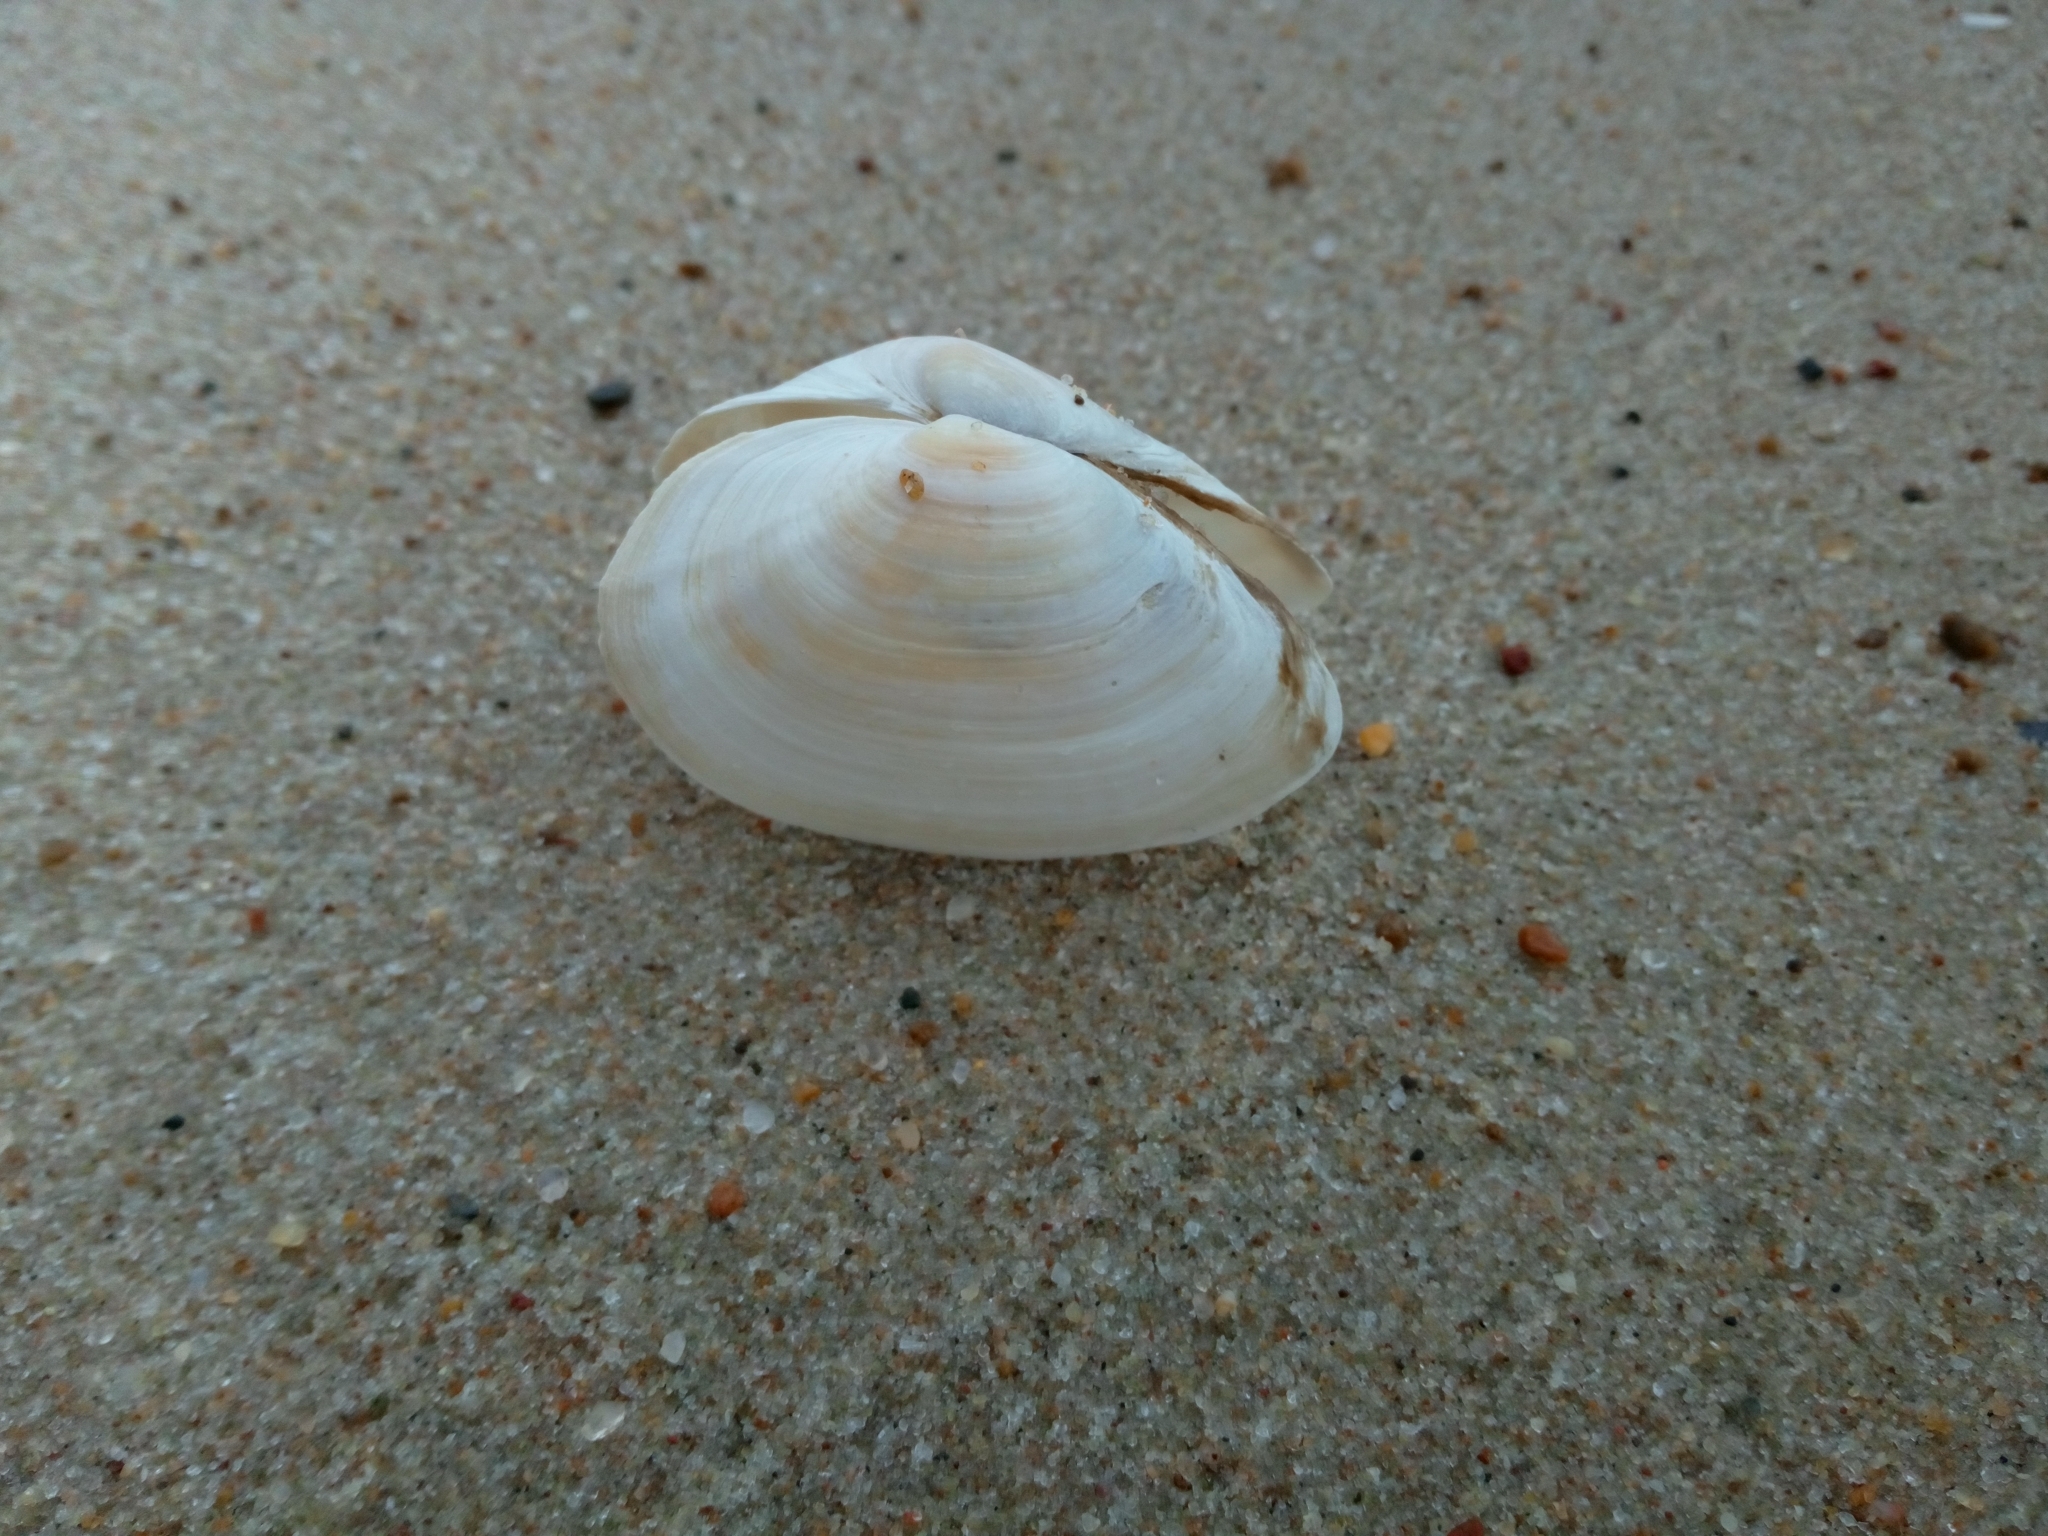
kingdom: Animalia
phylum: Mollusca
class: Bivalvia
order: Myida
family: Myidae
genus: Mya
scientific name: Mya arenaria
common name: Soft-shelled clam
